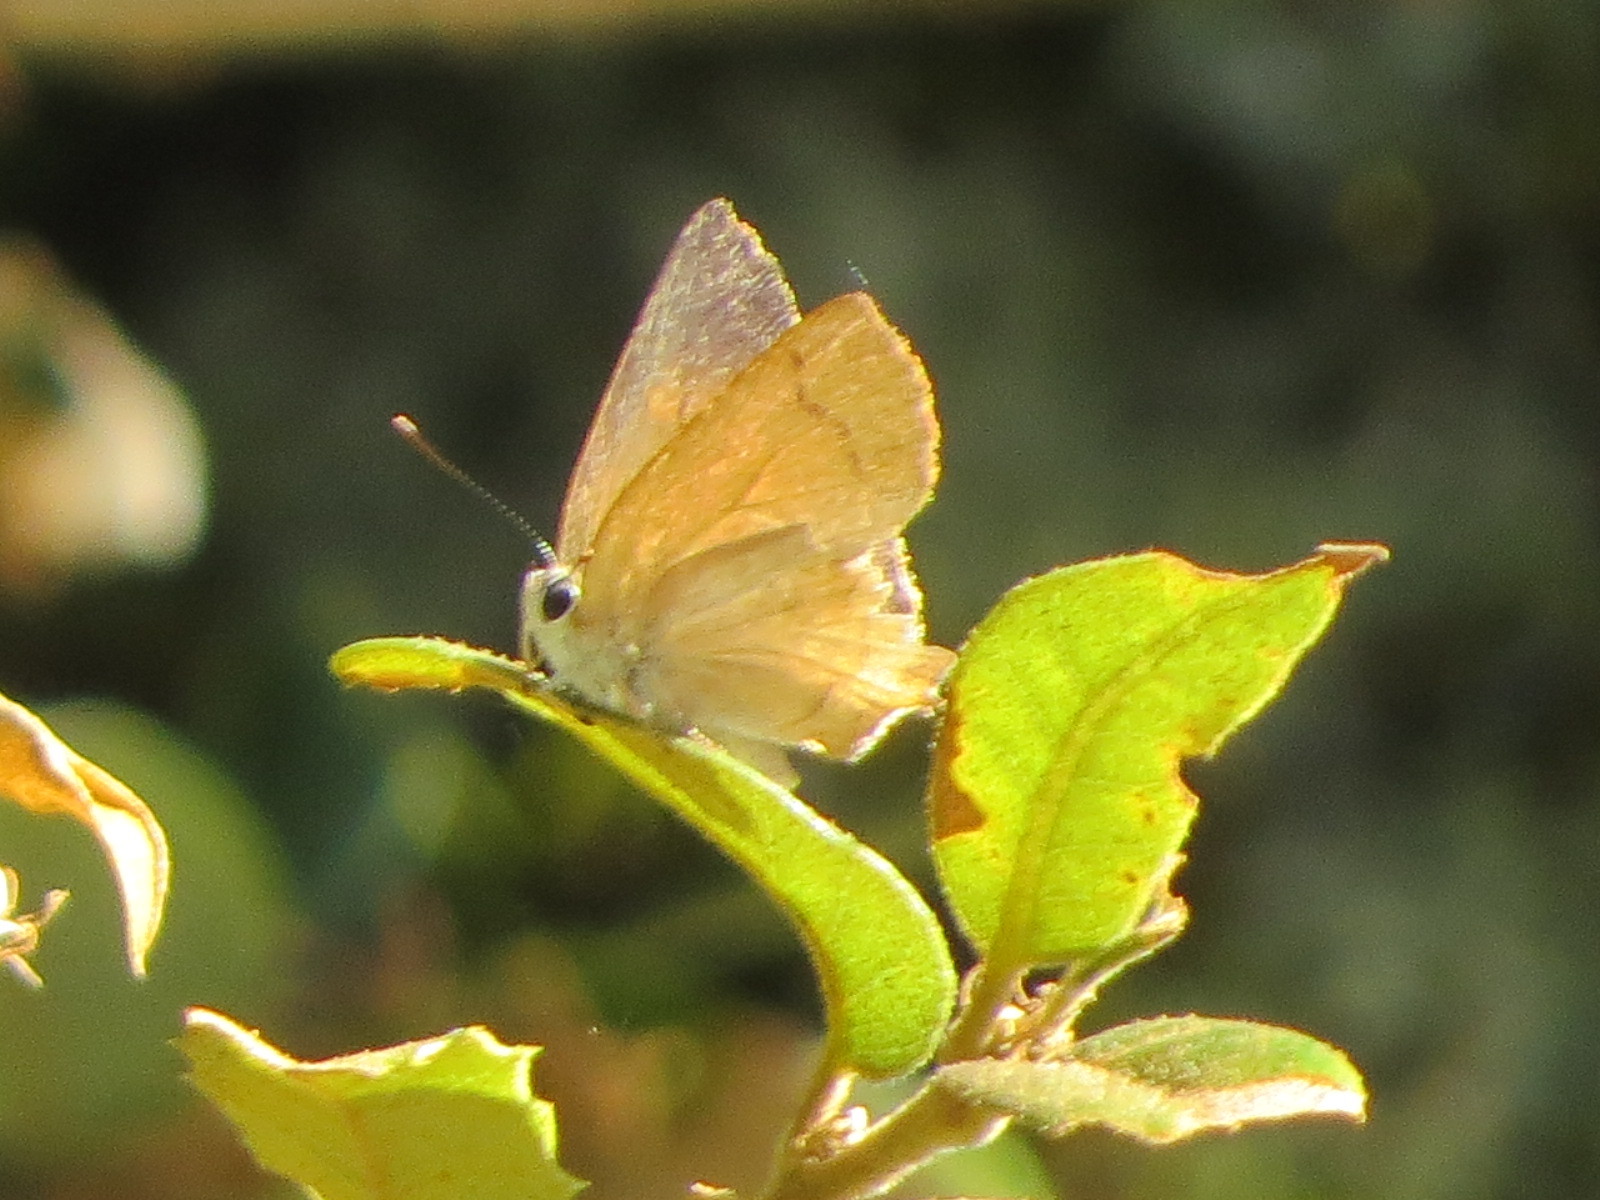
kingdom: Animalia
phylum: Arthropoda
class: Insecta
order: Lepidoptera
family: Lycaenidae
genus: Habrodais
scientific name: Habrodais grunus
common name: Golden hairstreak
